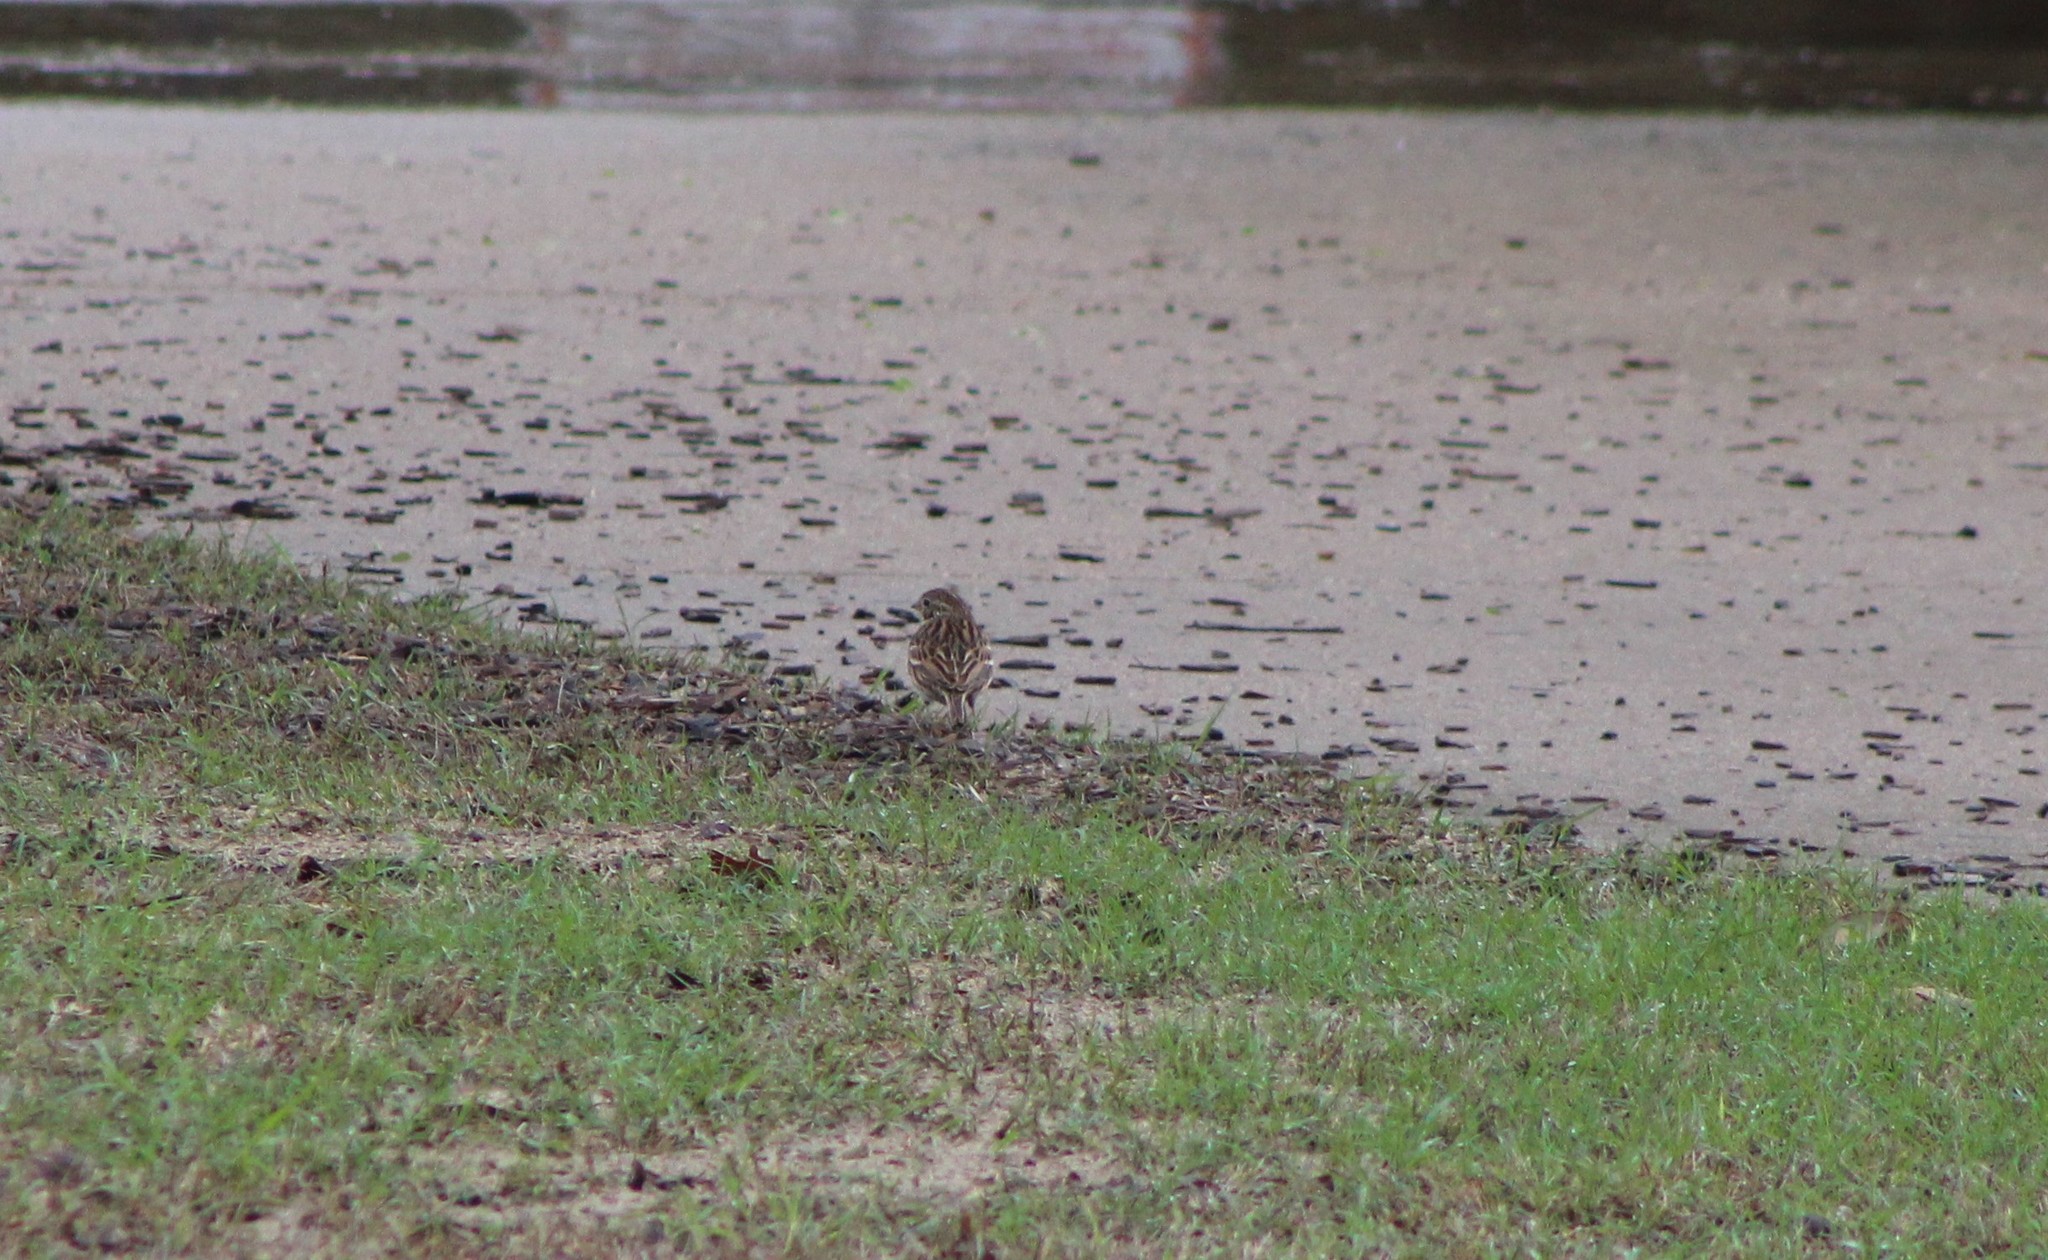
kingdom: Animalia
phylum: Chordata
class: Aves
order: Passeriformes
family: Passerellidae
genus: Pooecetes
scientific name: Pooecetes gramineus
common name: Vesper sparrow
